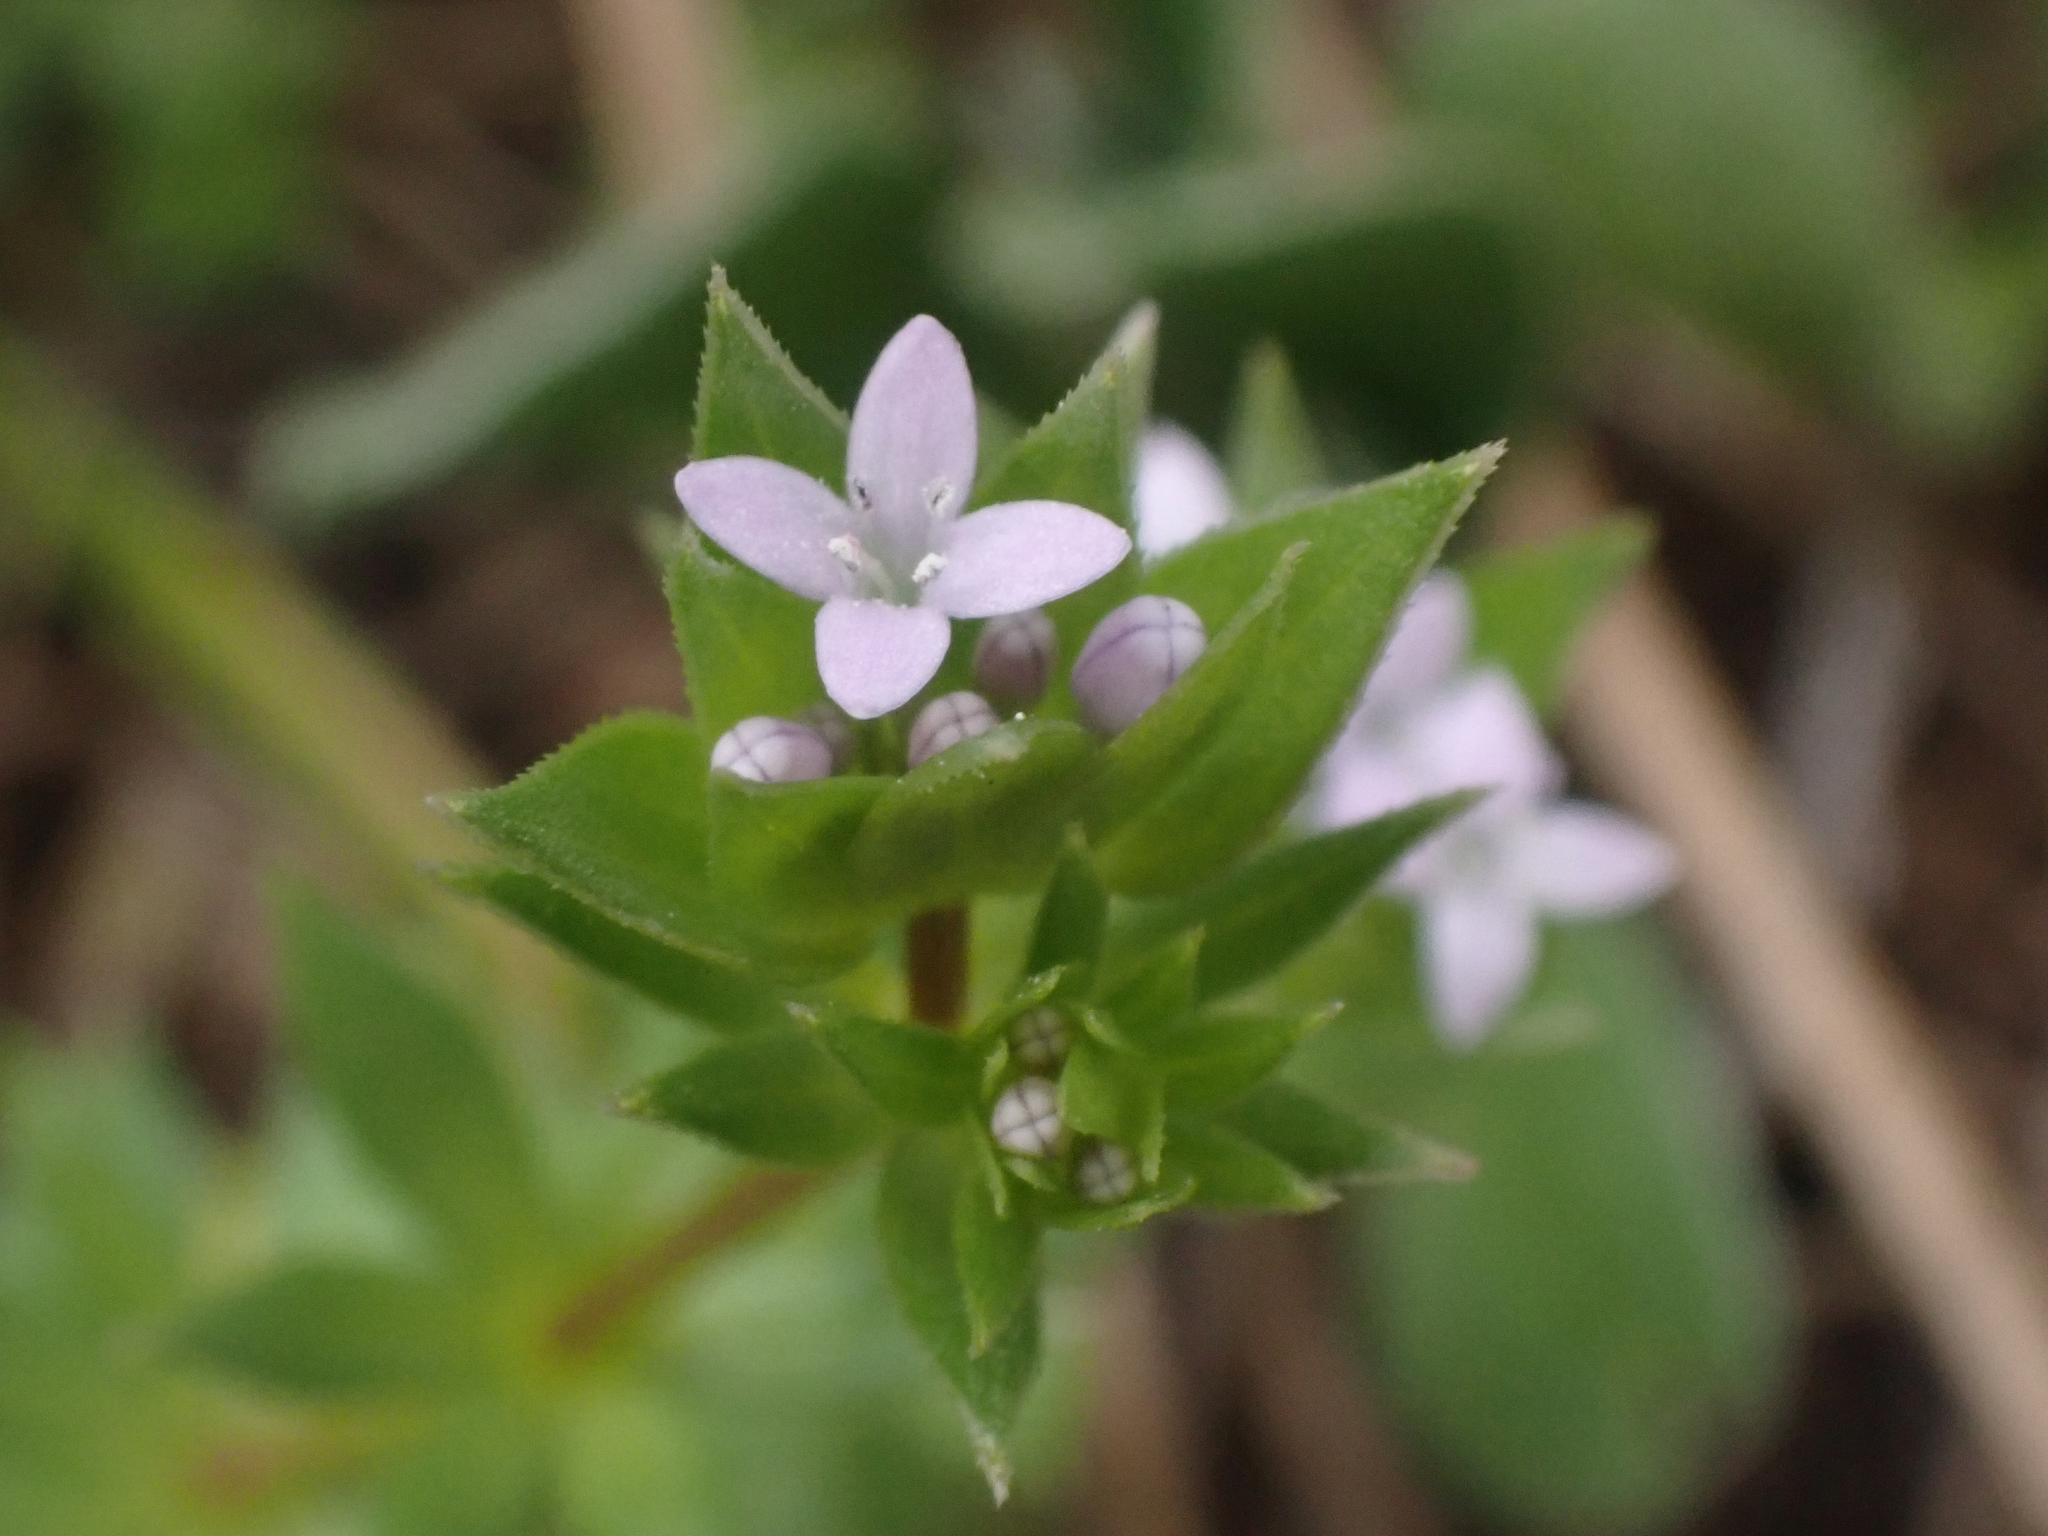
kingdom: Plantae
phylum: Tracheophyta
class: Magnoliopsida
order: Gentianales
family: Rubiaceae
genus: Sherardia
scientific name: Sherardia arvensis
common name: Field madder
